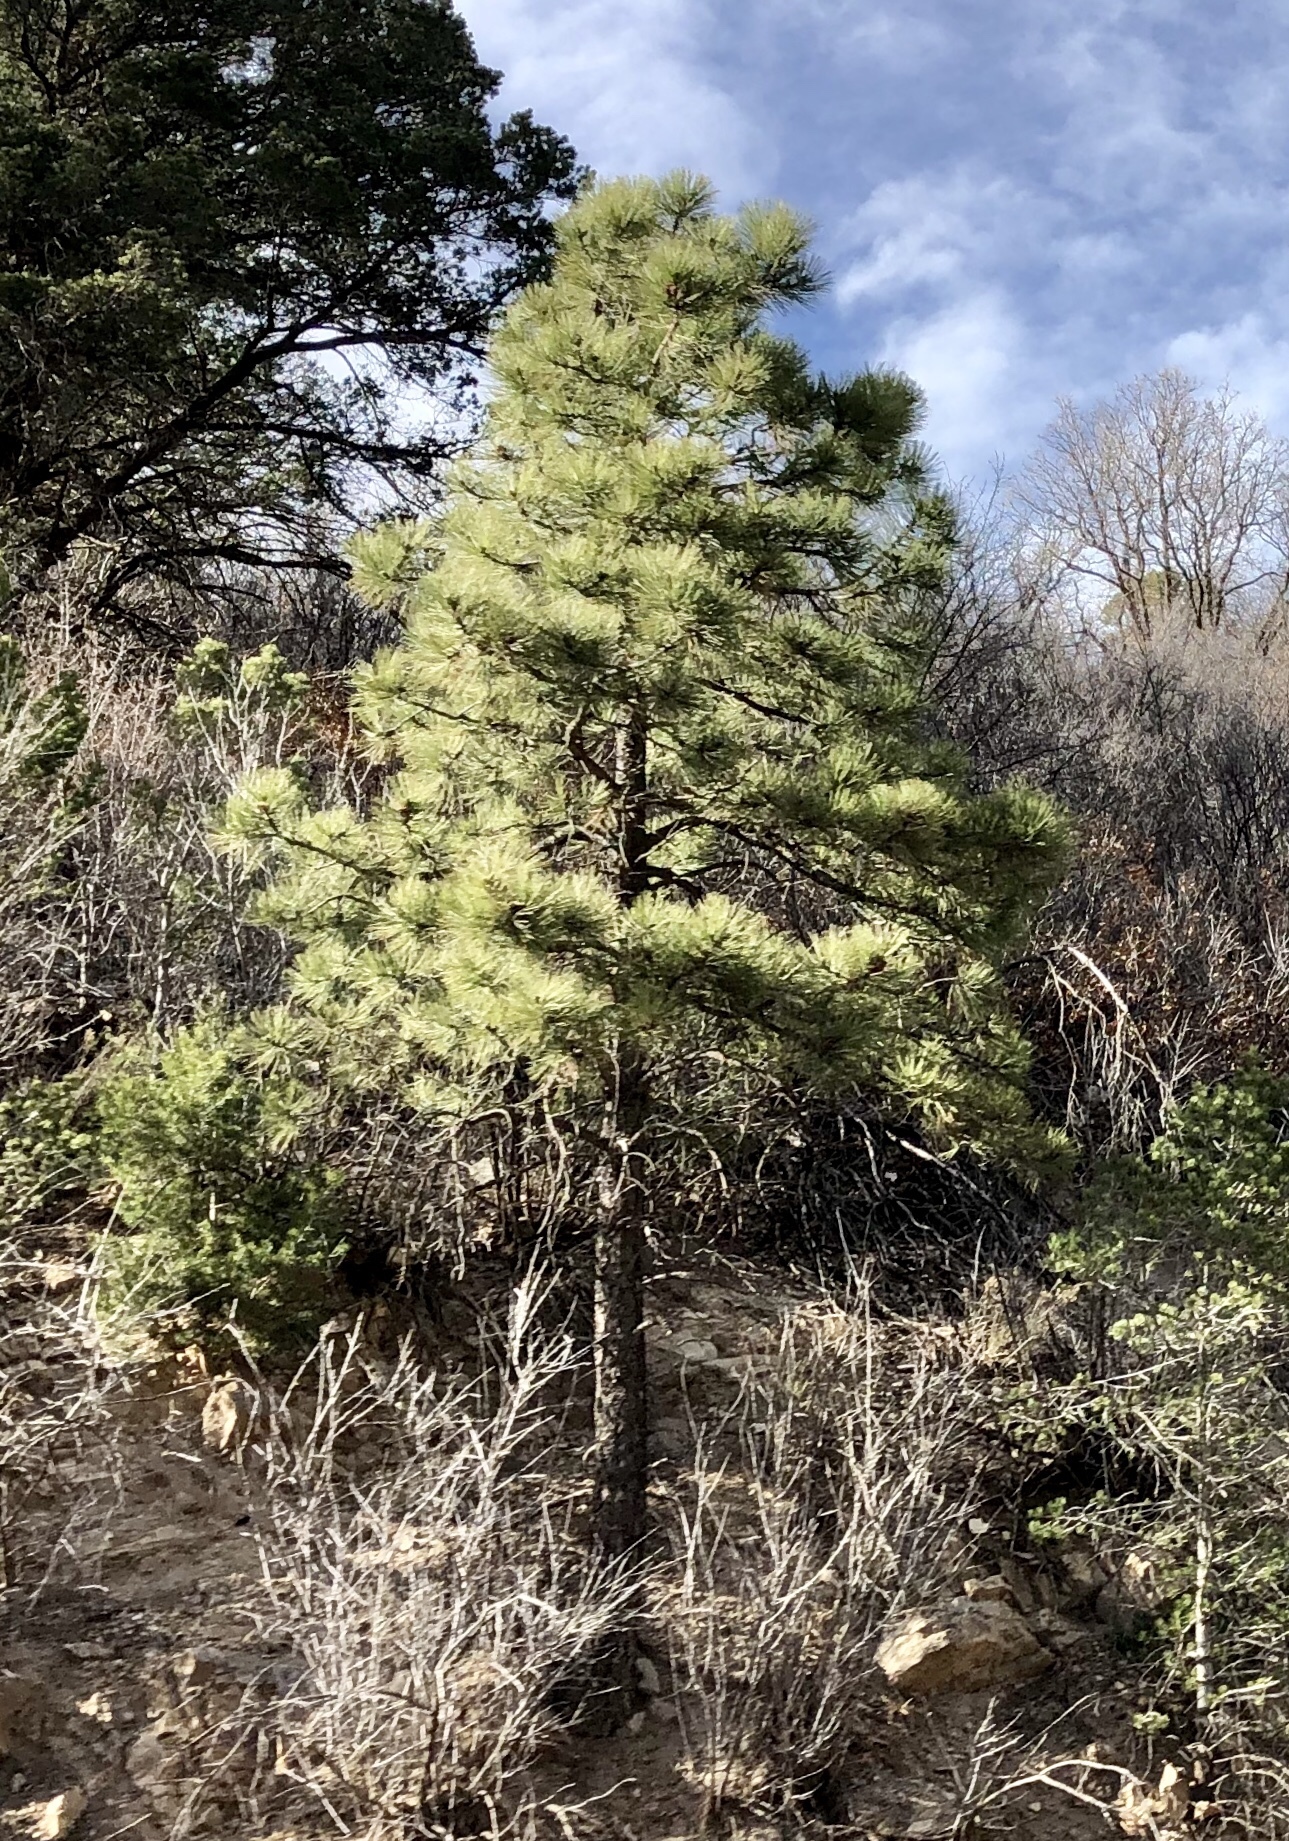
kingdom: Plantae
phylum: Tracheophyta
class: Pinopsida
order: Pinales
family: Pinaceae
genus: Pinus
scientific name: Pinus ponderosa
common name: Western yellow-pine
